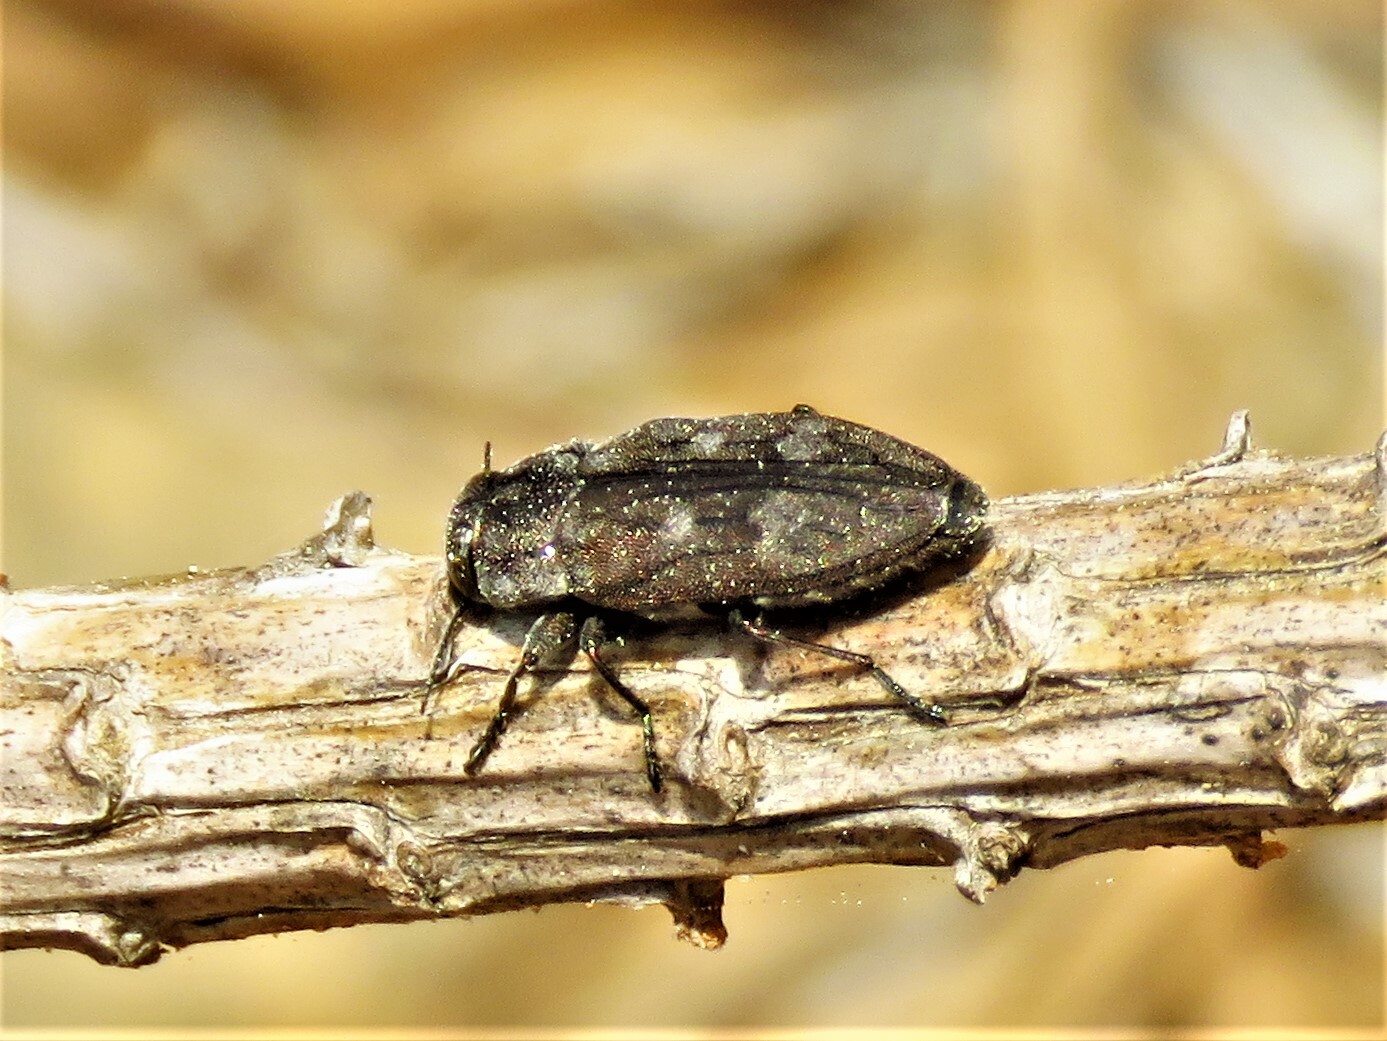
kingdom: Animalia
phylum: Arthropoda
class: Insecta
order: Coleoptera
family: Buprestidae
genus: Chrysobothris
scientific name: Chrysobothris cribraria
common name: Sifting metallic wood-borer
